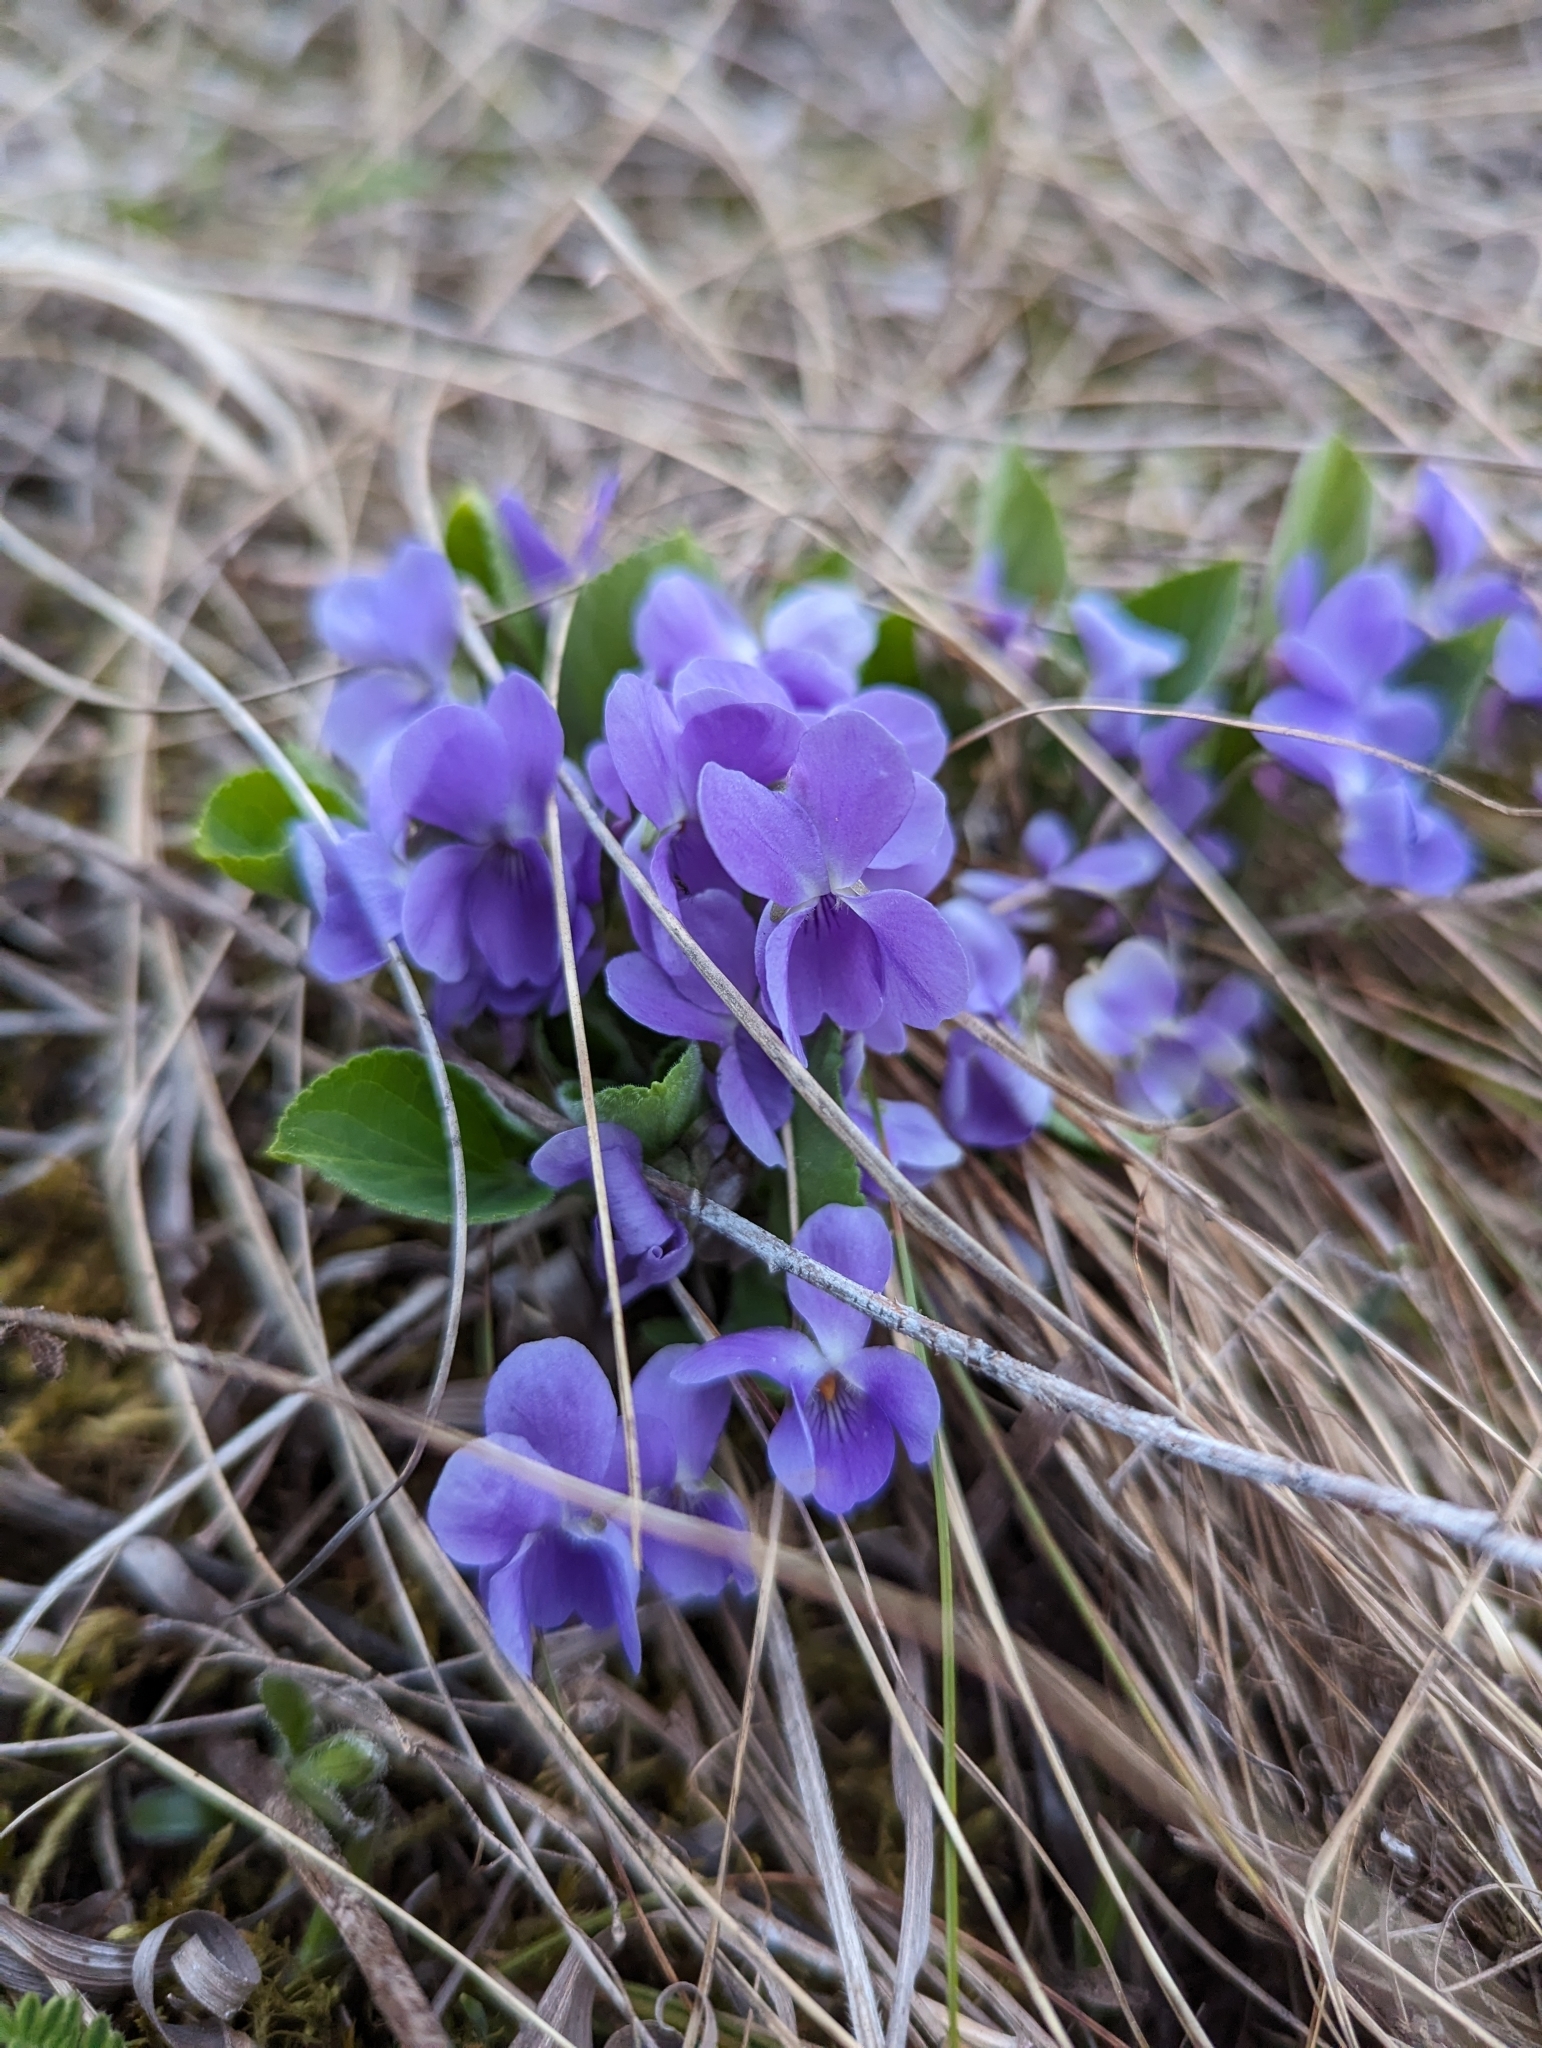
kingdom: Plantae
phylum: Tracheophyta
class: Magnoliopsida
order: Malpighiales
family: Violaceae
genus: Viola
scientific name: Viola hirta
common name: Hairy violet
